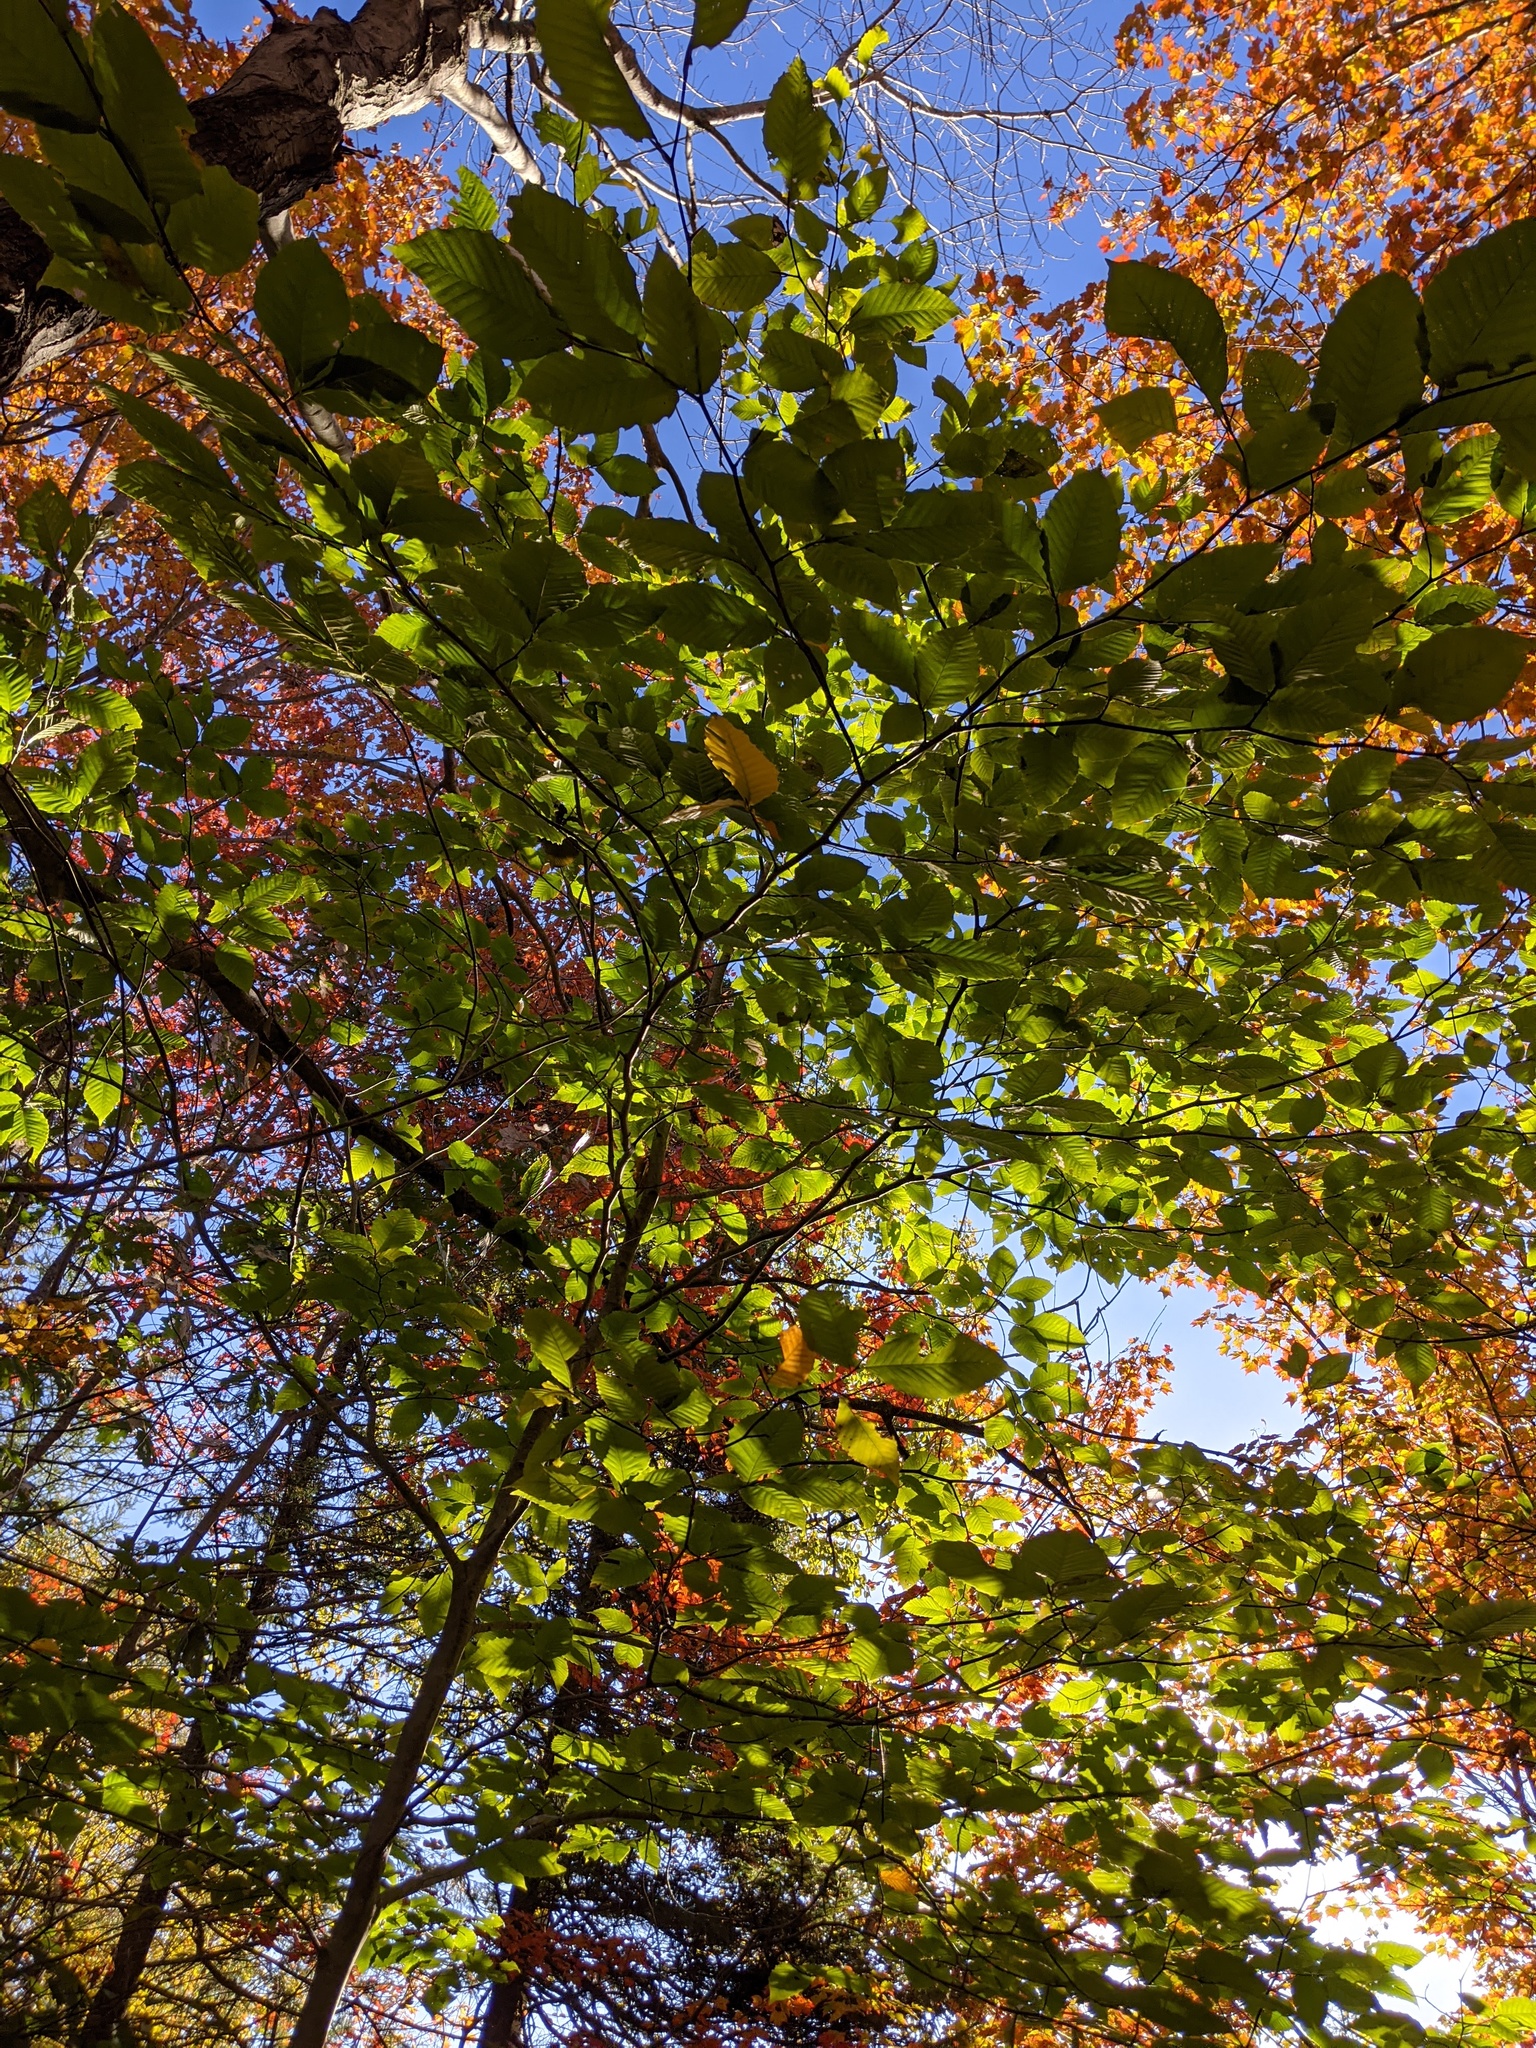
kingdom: Plantae
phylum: Tracheophyta
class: Magnoliopsida
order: Fagales
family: Fagaceae
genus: Fagus
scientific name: Fagus grandifolia
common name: American beech
